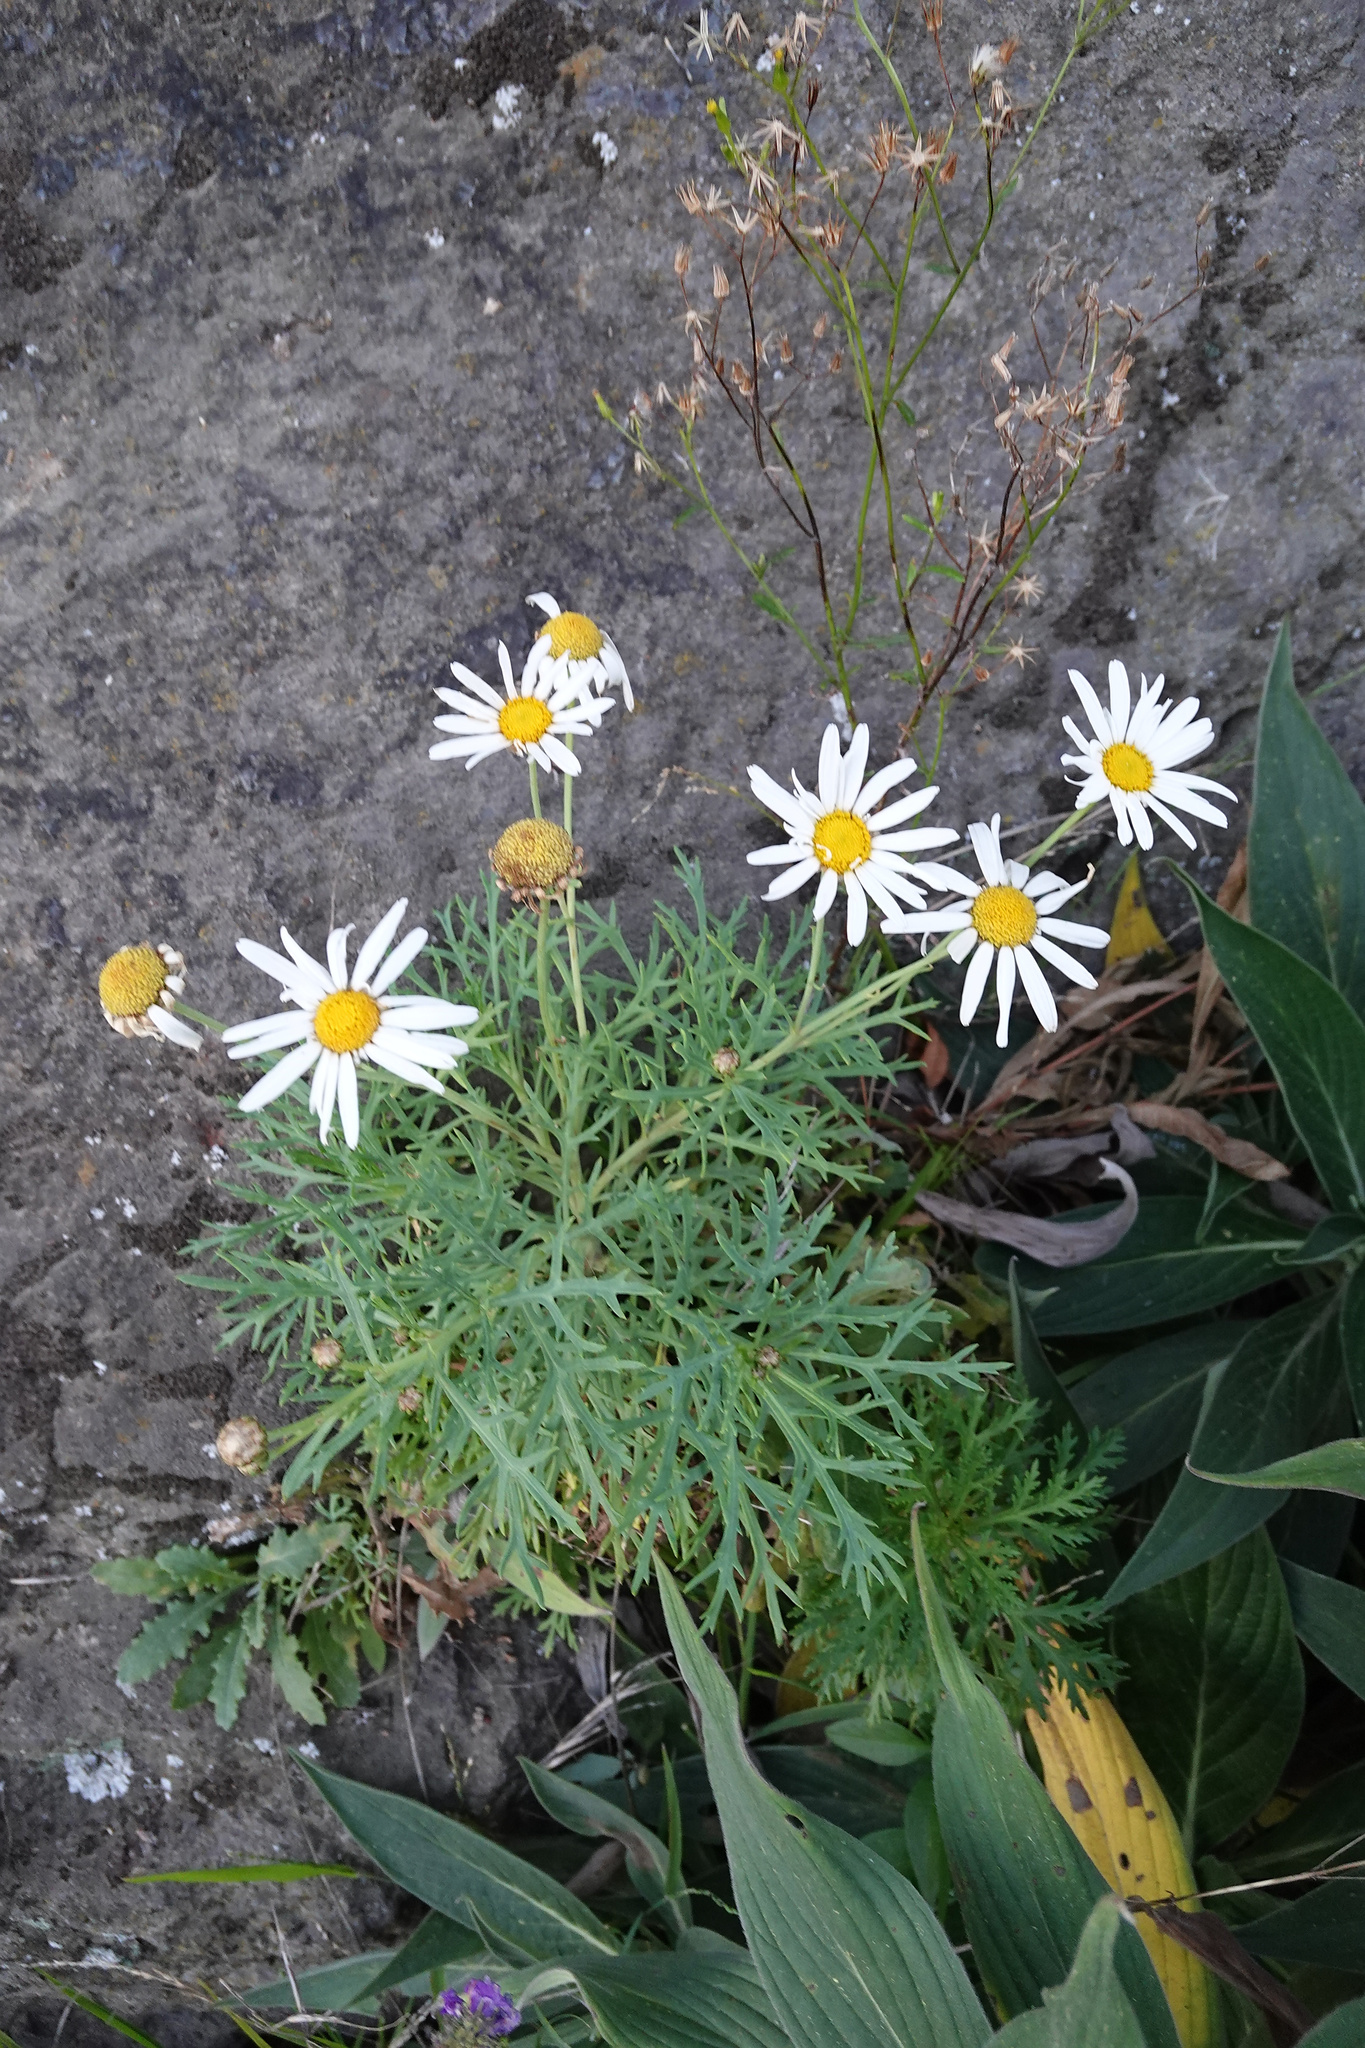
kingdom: Plantae
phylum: Tracheophyta
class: Magnoliopsida
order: Asterales
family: Asteraceae
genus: Argyranthemum
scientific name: Argyranthemum frutescens
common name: Paris daisy
